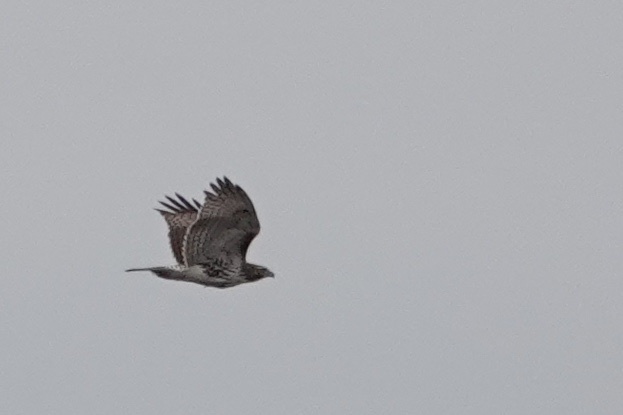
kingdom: Animalia
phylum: Chordata
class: Aves
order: Accipitriformes
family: Accipitridae
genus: Buteo
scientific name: Buteo jamaicensis
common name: Red-tailed hawk
